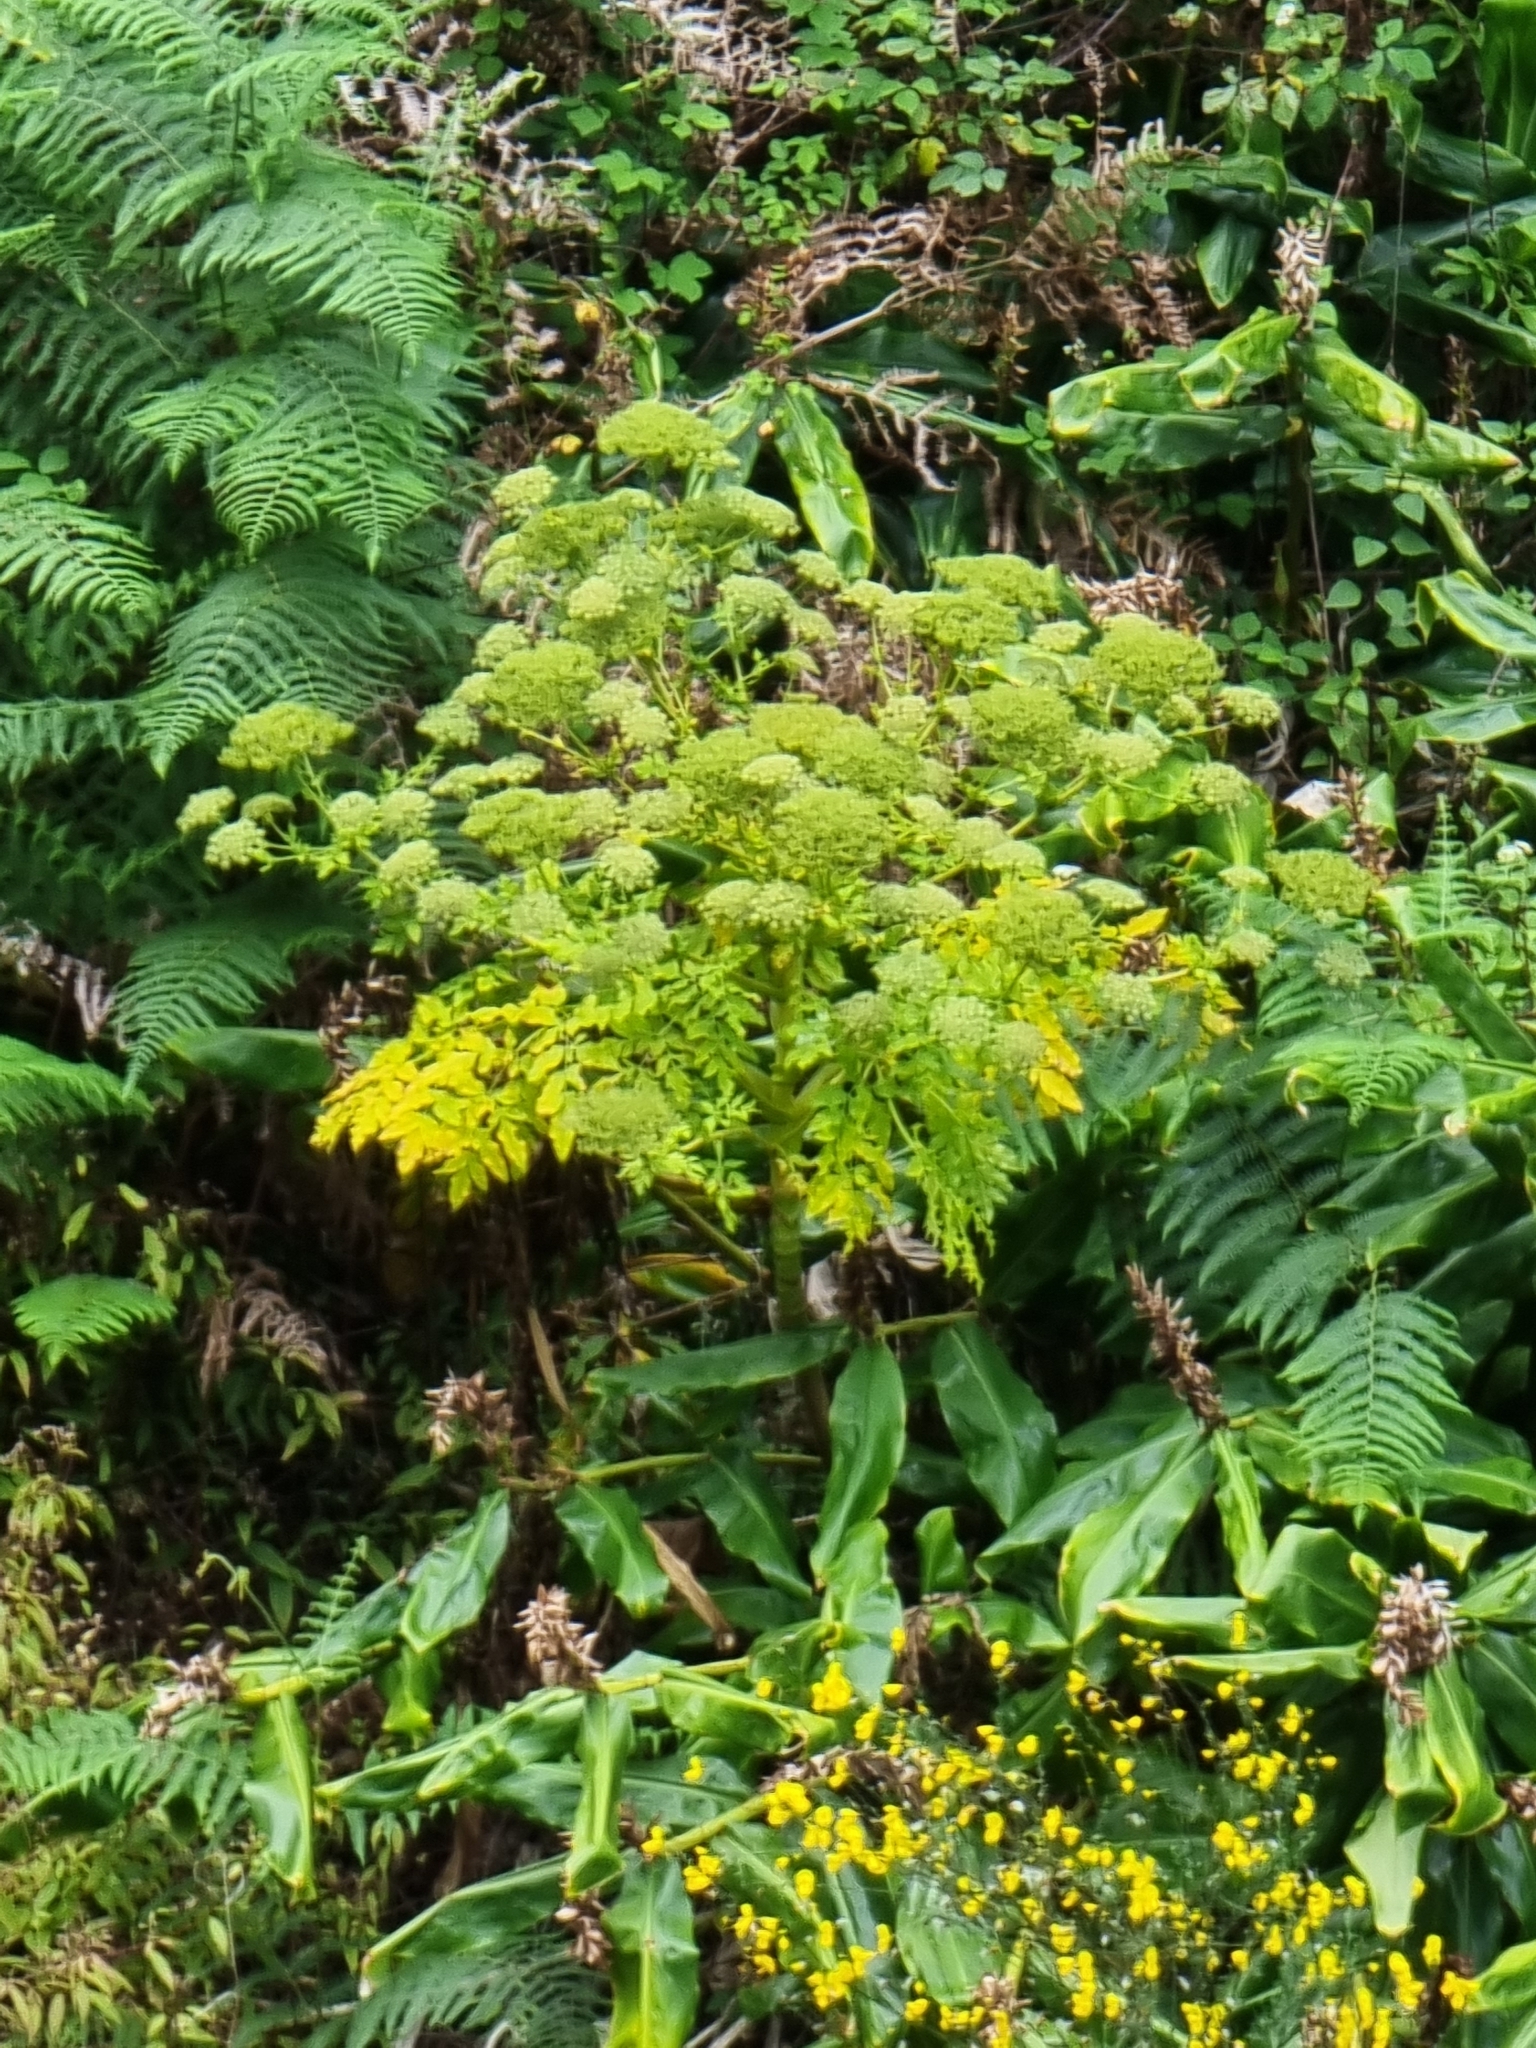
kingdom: Plantae
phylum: Tracheophyta
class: Magnoliopsida
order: Apiales
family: Apiaceae
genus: Daucus
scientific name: Daucus decipiens
